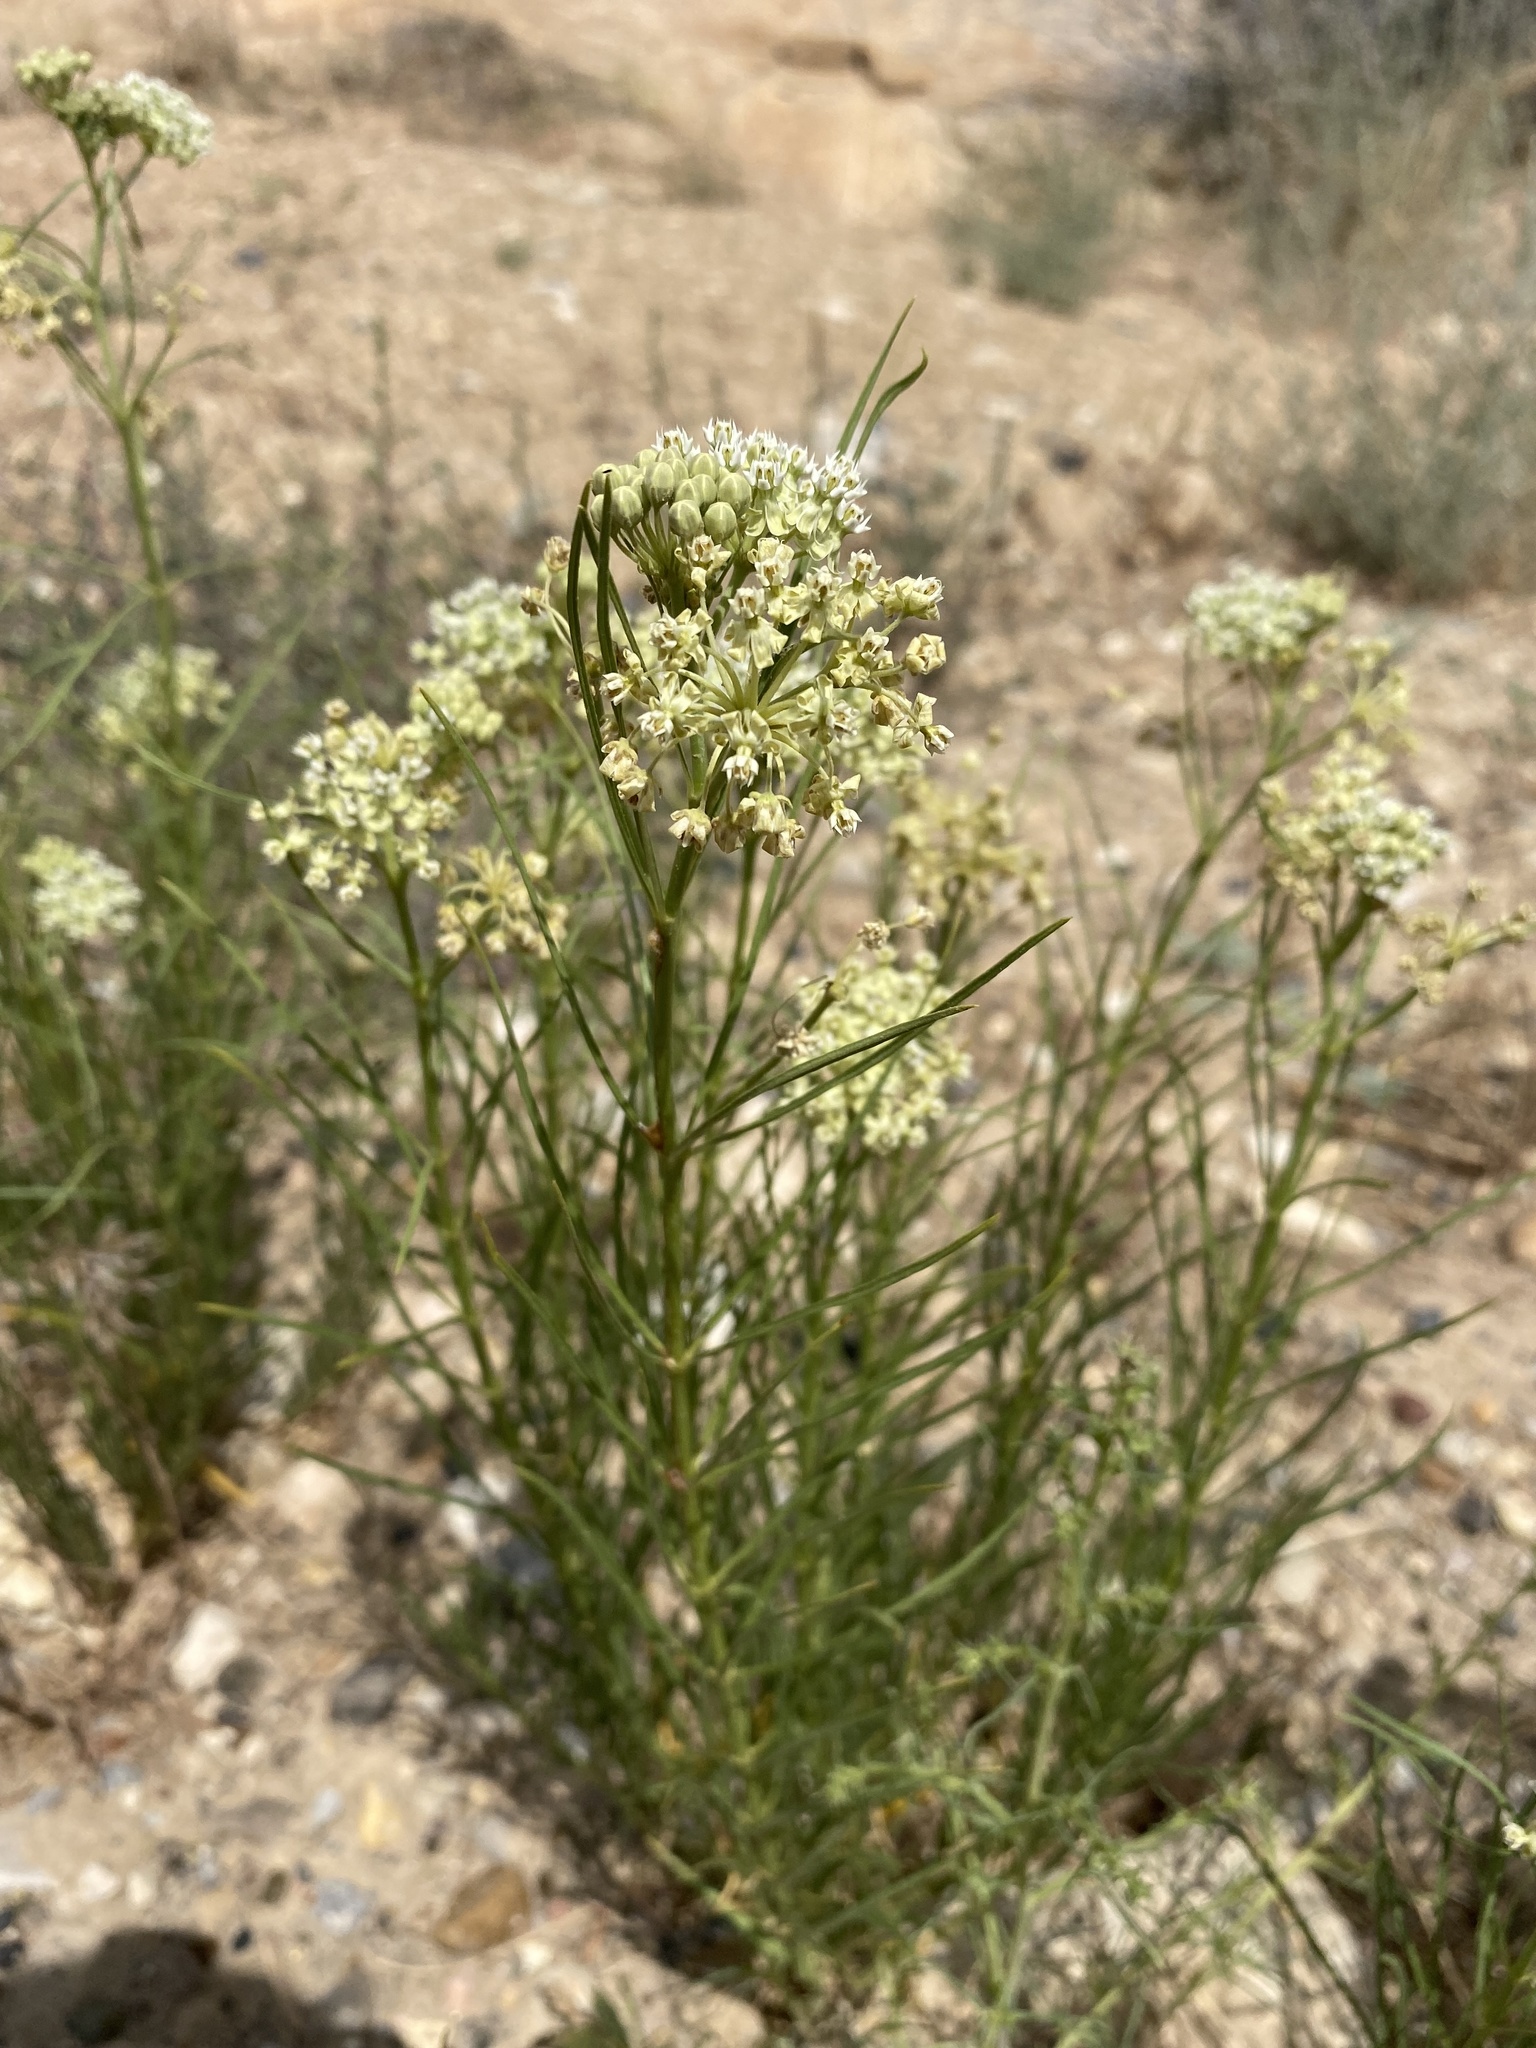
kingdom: Plantae
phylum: Tracheophyta
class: Magnoliopsida
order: Gentianales
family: Apocynaceae
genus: Asclepias
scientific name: Asclepias subverticillata
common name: Horsetail milkweed
